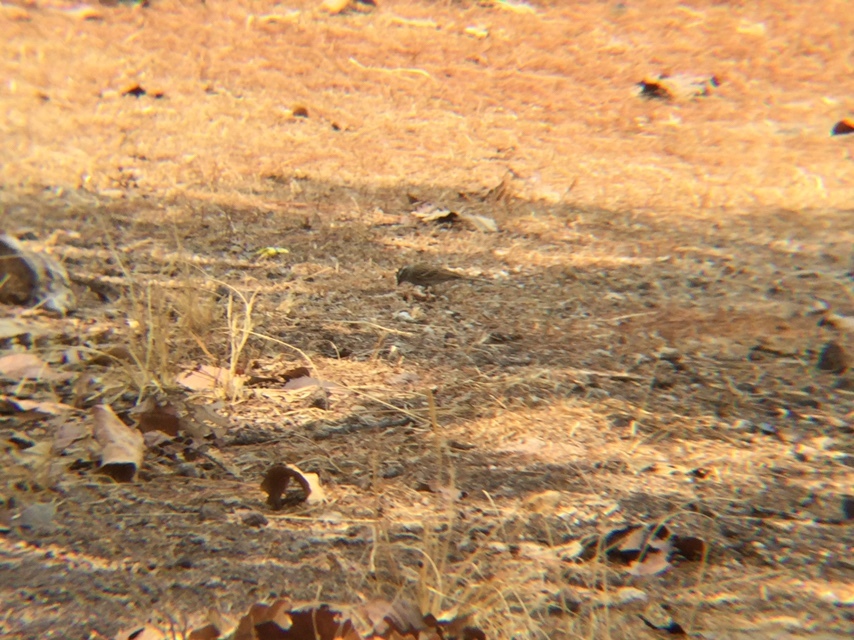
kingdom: Animalia
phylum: Chordata
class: Aves
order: Passeriformes
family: Passerellidae
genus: Aimophila
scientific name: Aimophila ruficeps
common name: Rufous-crowned sparrow
